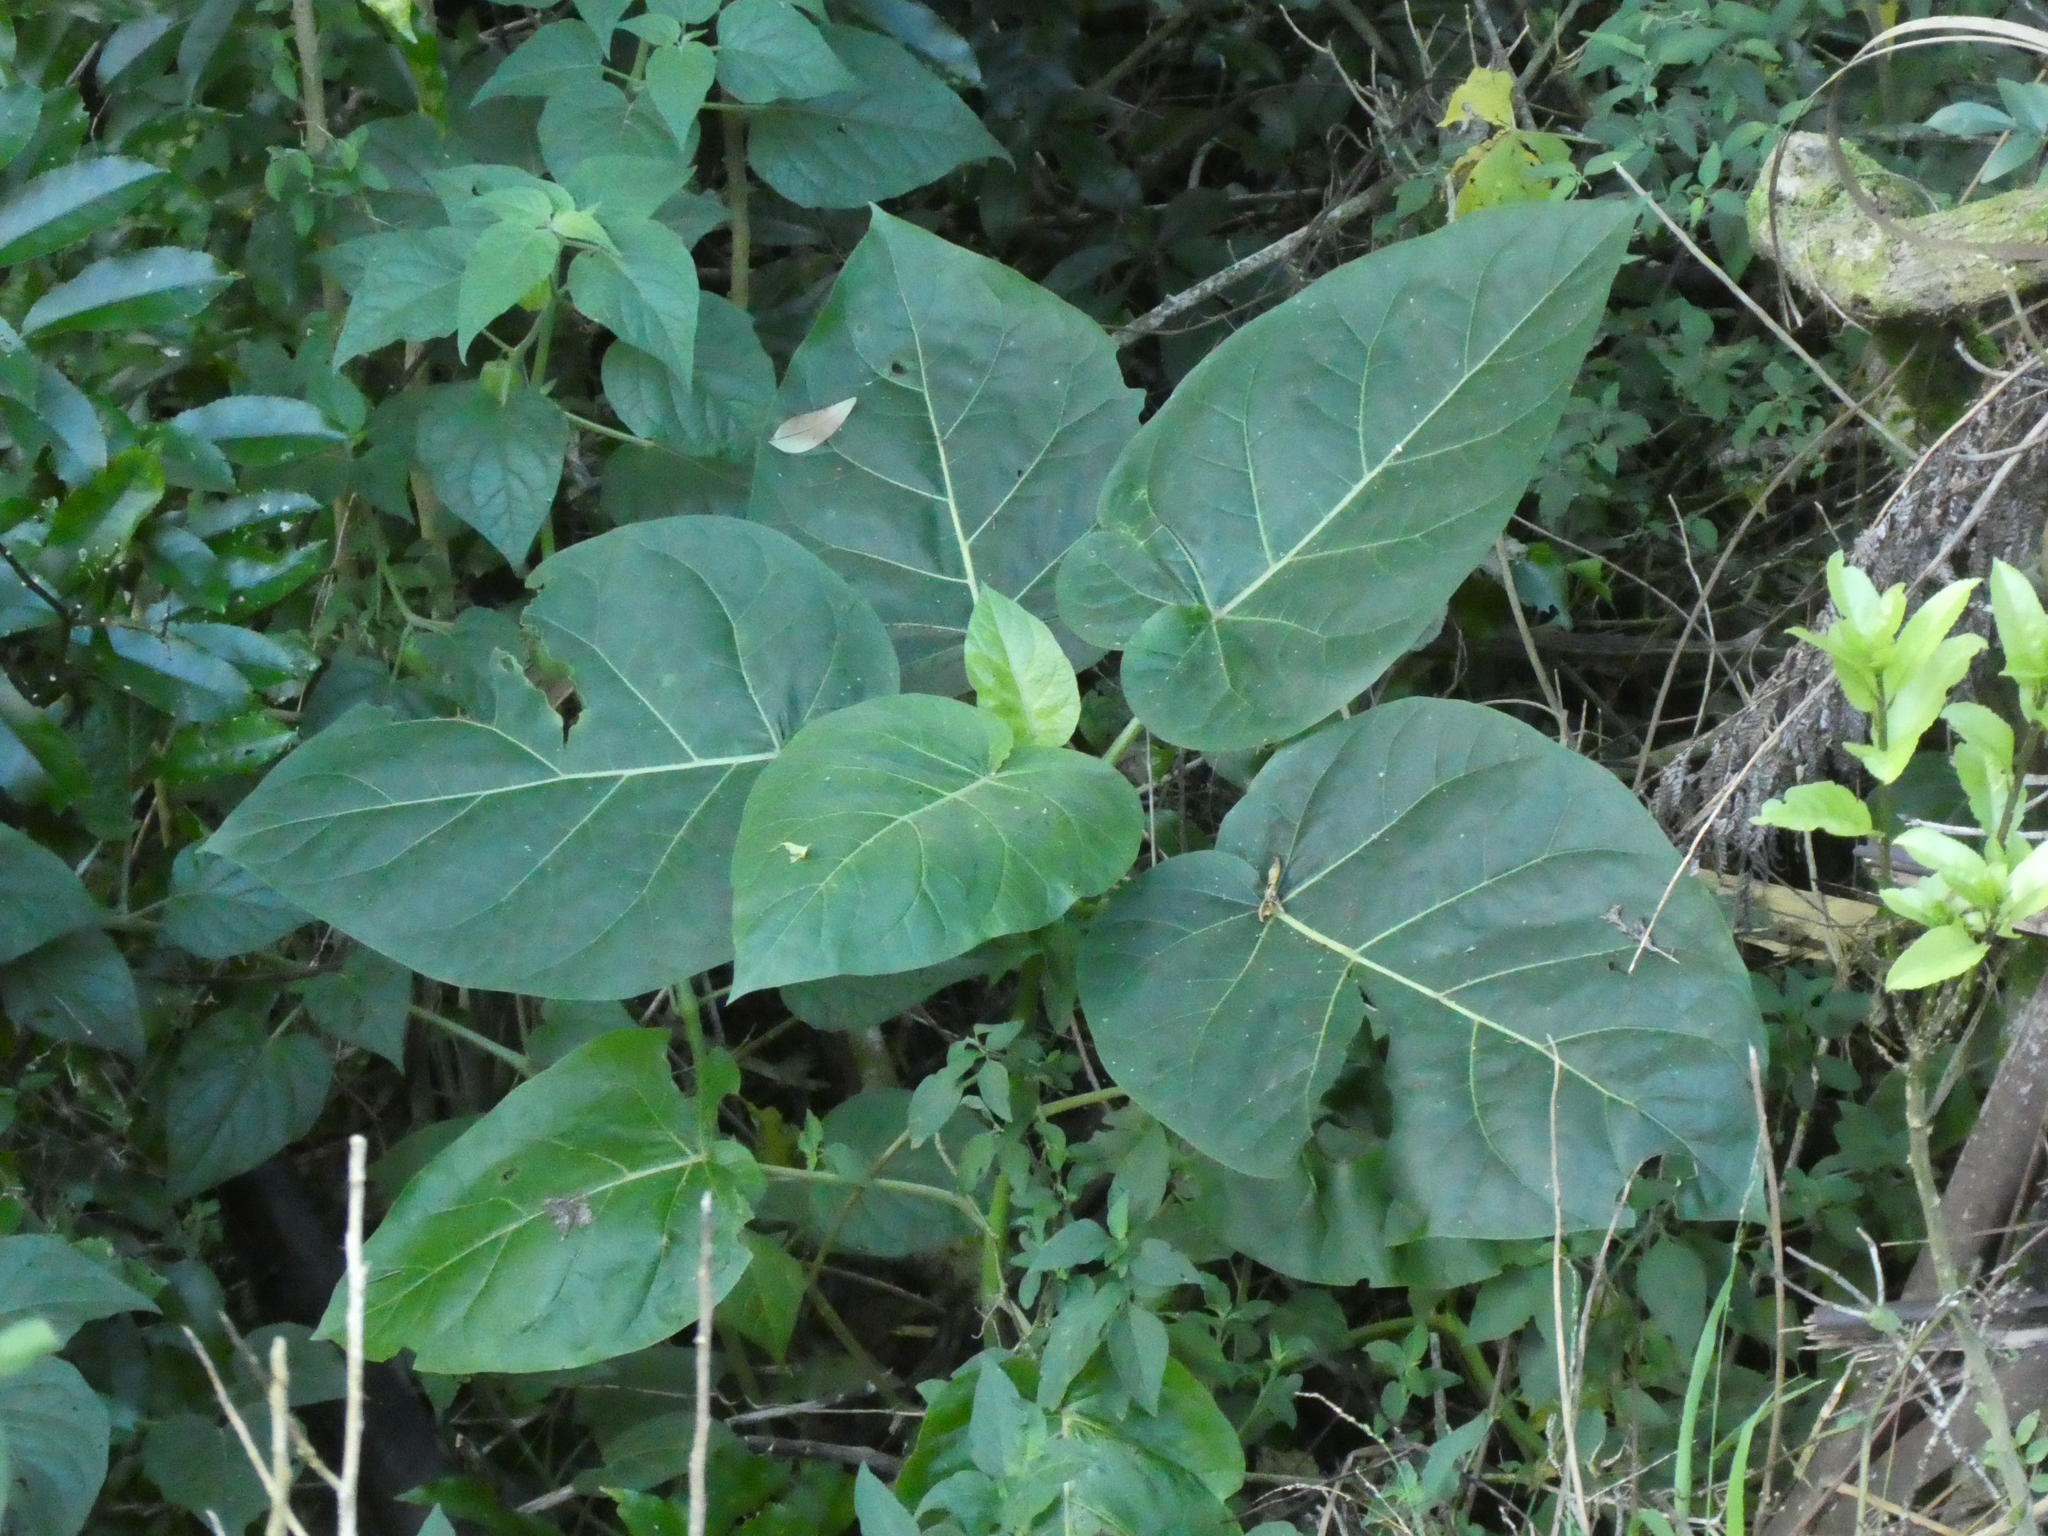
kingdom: Plantae
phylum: Tracheophyta
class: Magnoliopsida
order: Solanales
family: Solanaceae
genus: Solanum
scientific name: Solanum betaceum
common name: Tamarillo
